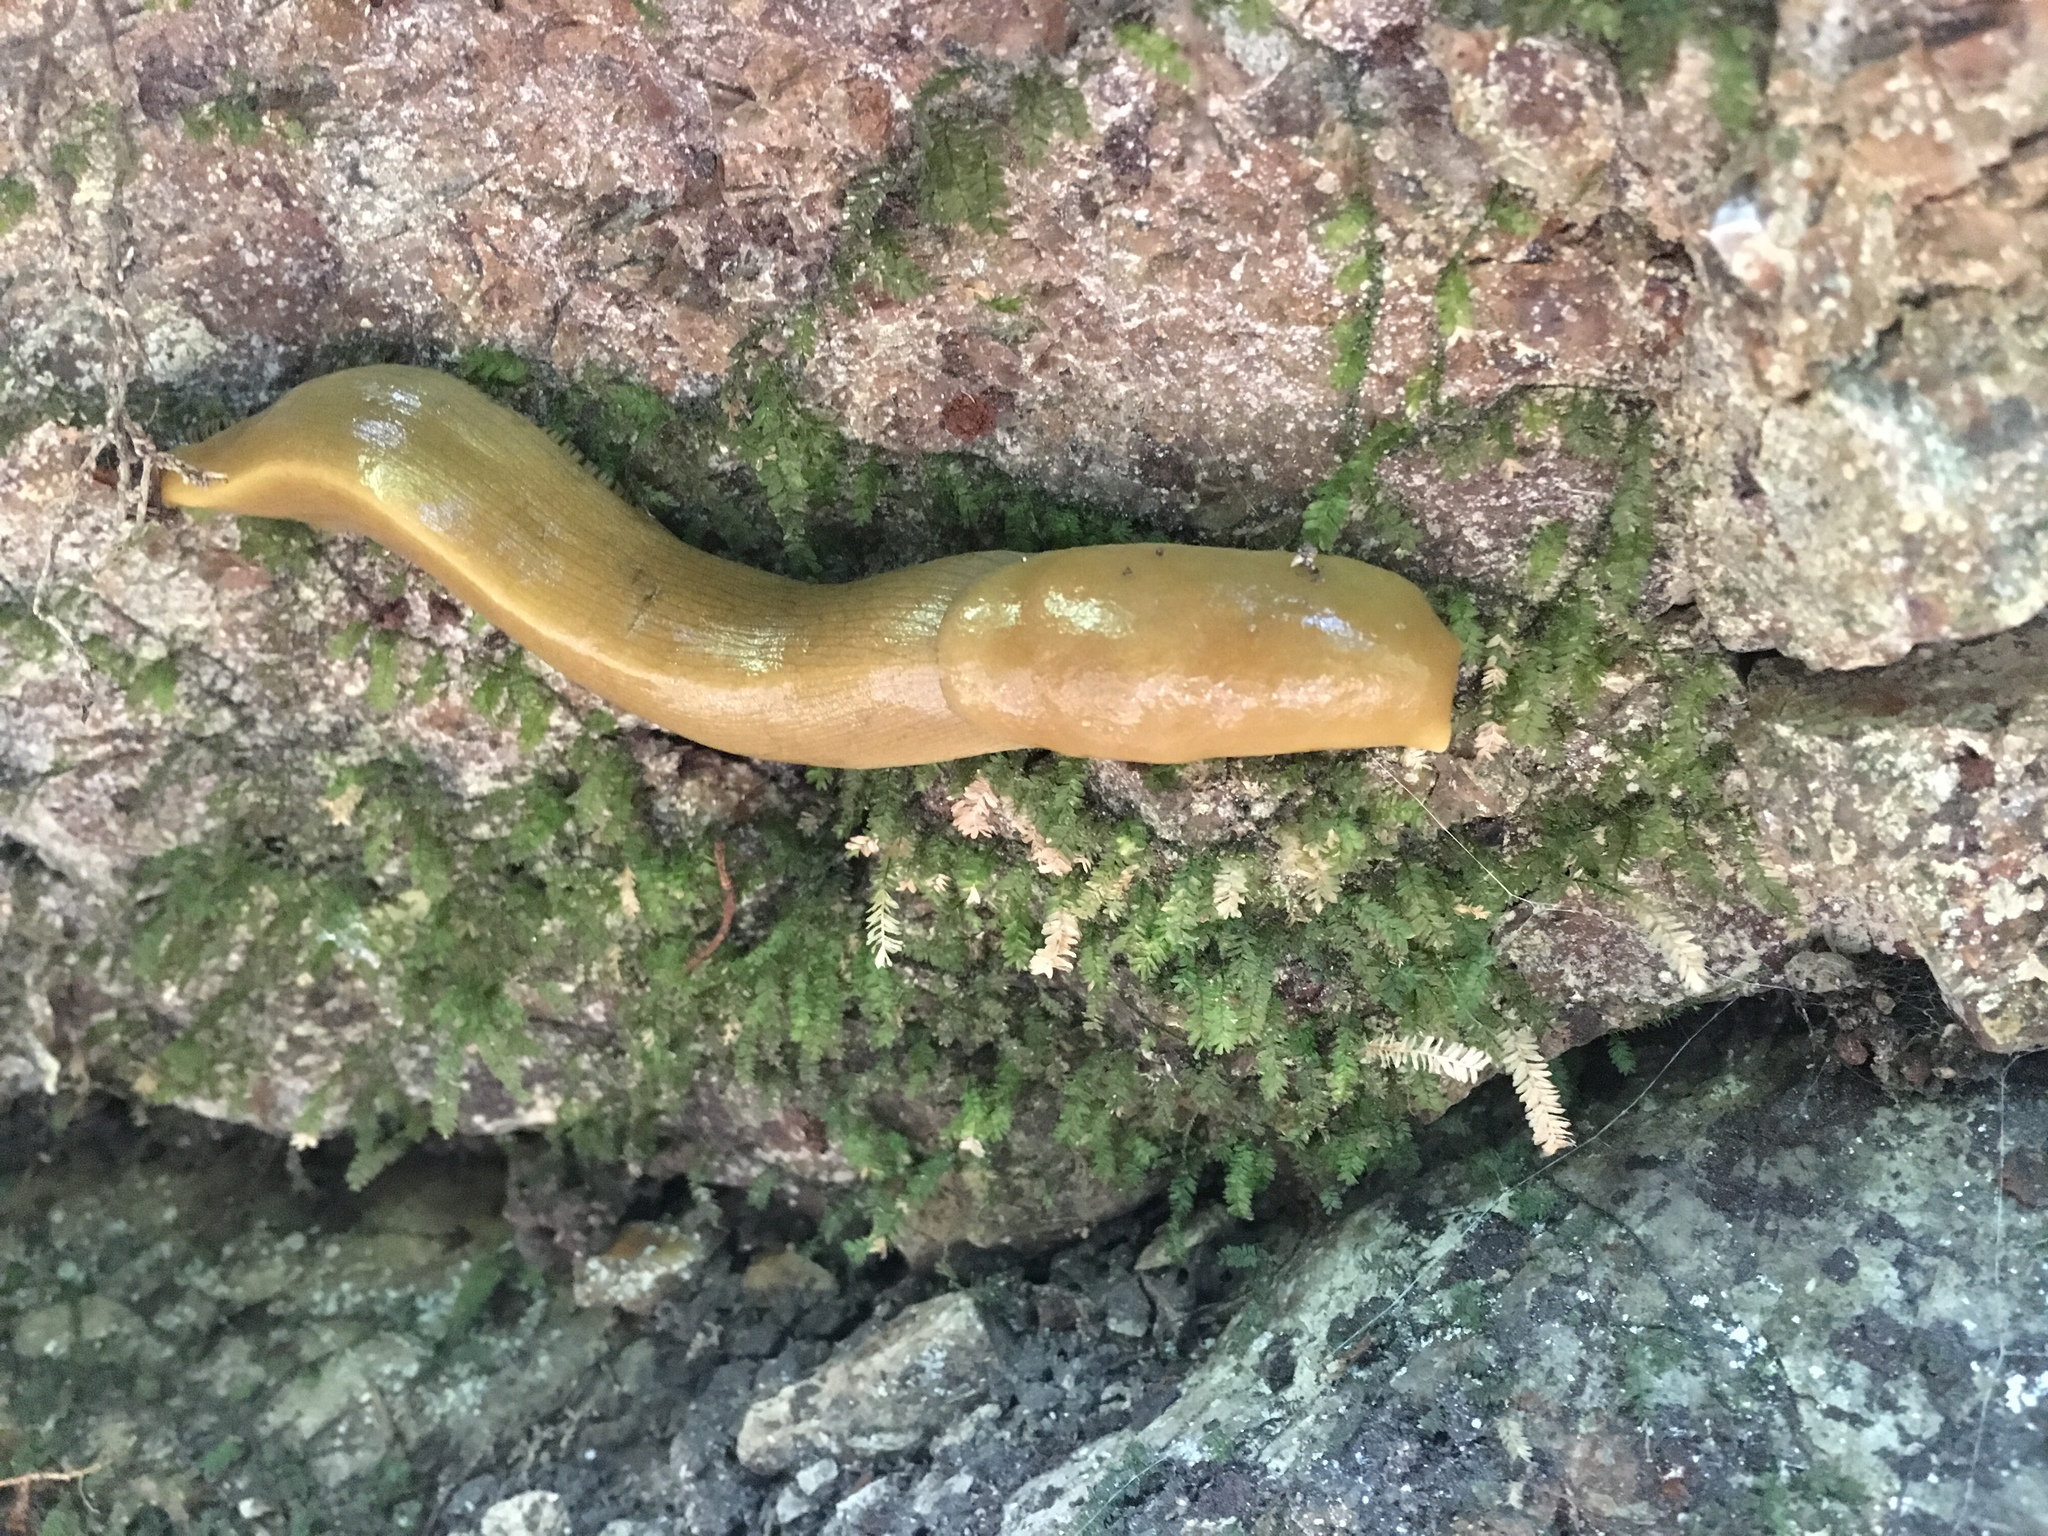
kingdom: Animalia
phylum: Mollusca
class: Gastropoda
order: Stylommatophora
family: Ariolimacidae
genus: Ariolimax
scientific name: Ariolimax buttoni
